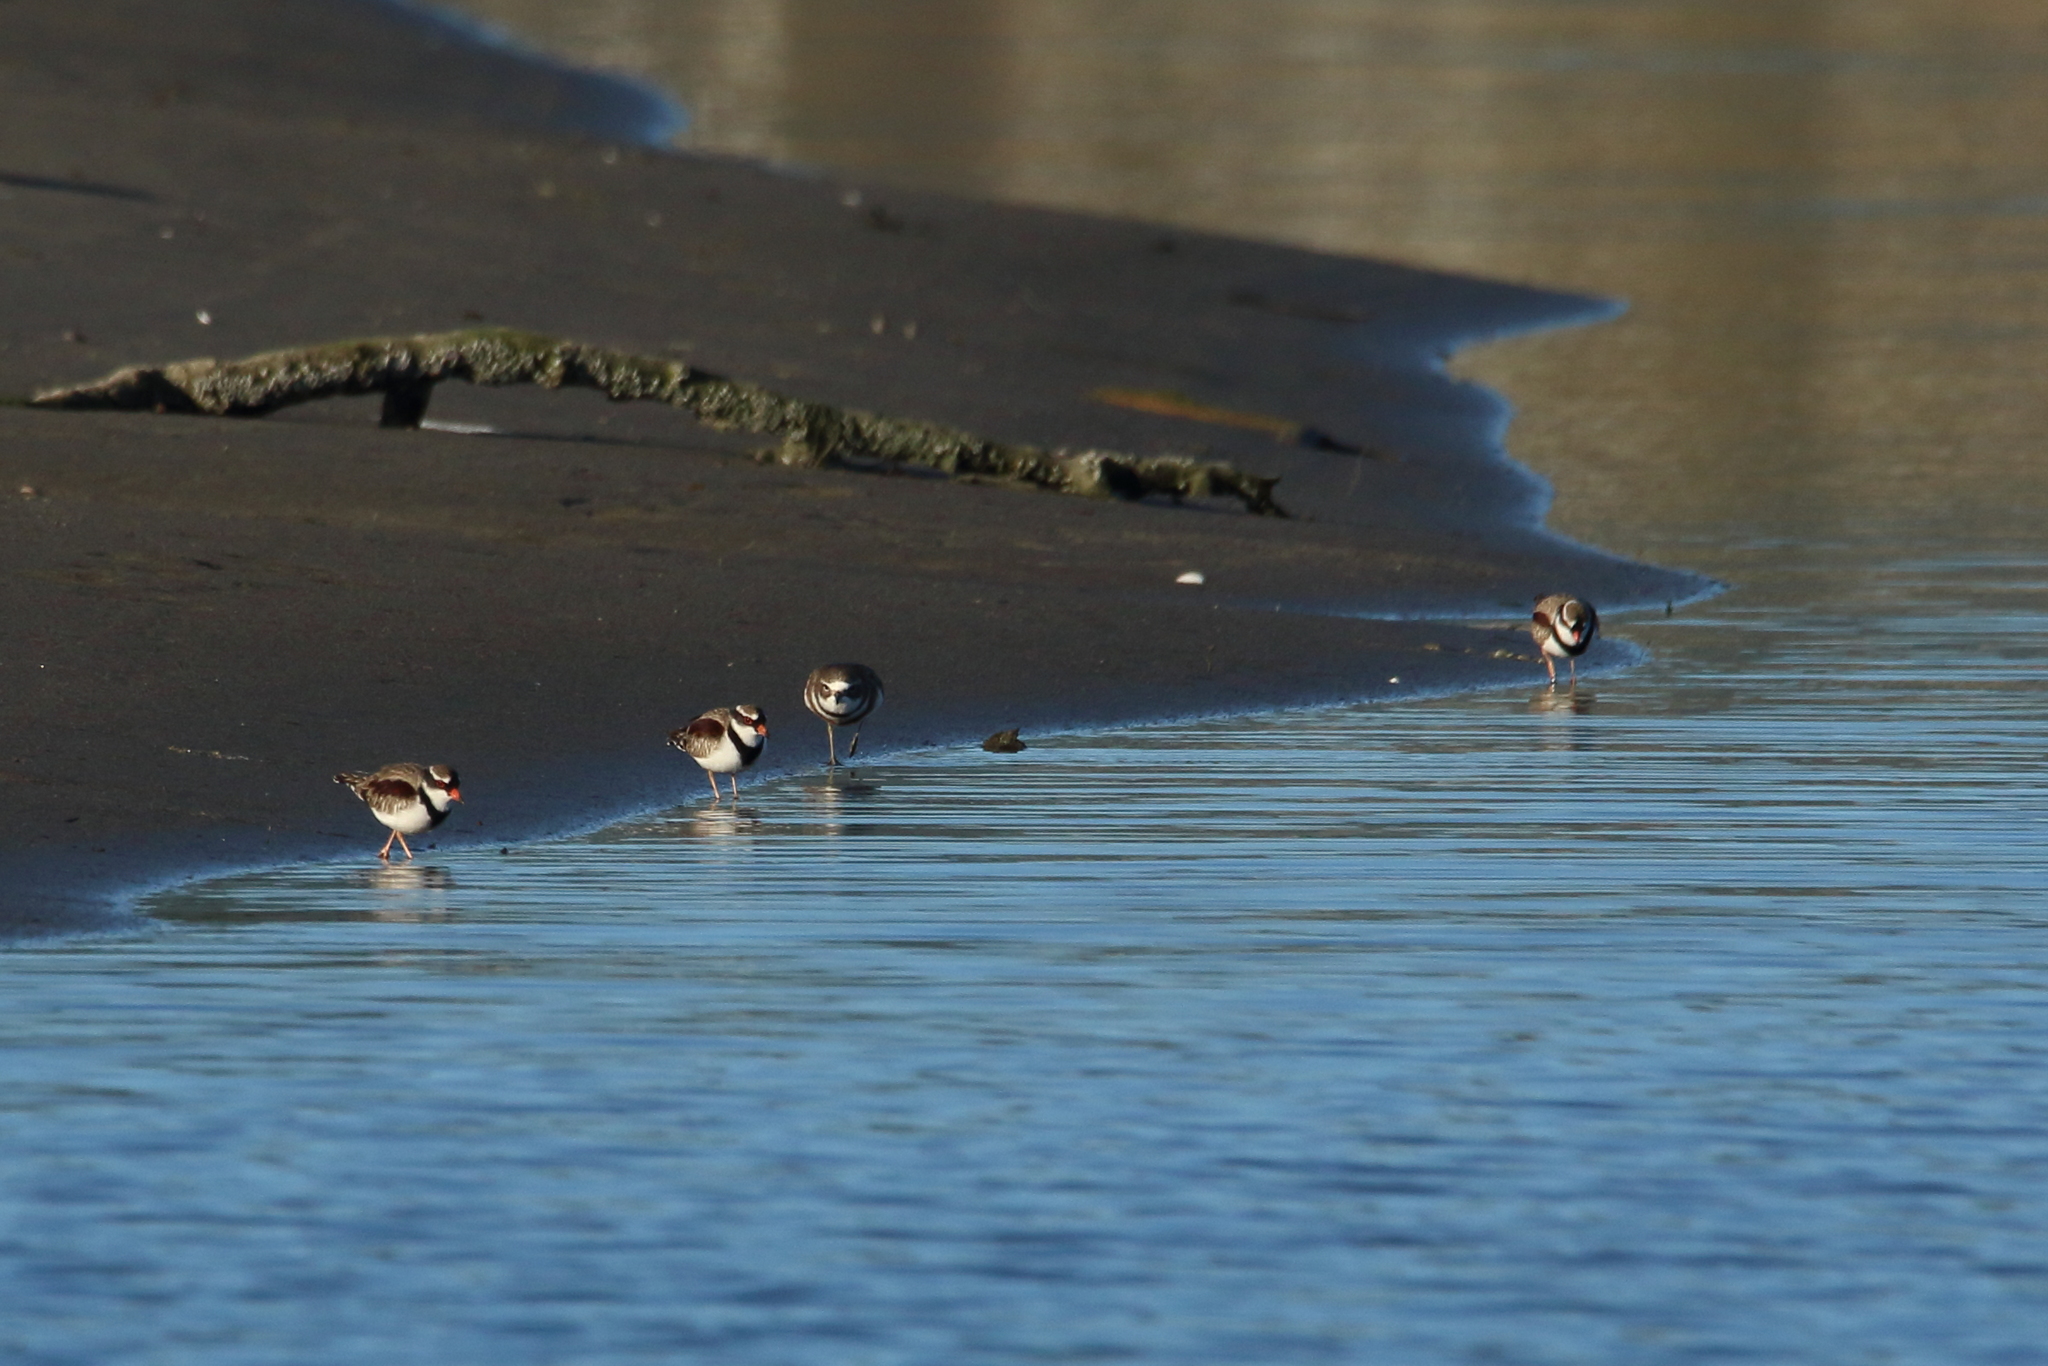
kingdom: Animalia
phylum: Chordata
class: Aves
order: Charadriiformes
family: Charadriidae
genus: Elseyornis
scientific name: Elseyornis melanops
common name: Black-fronted dotterel
